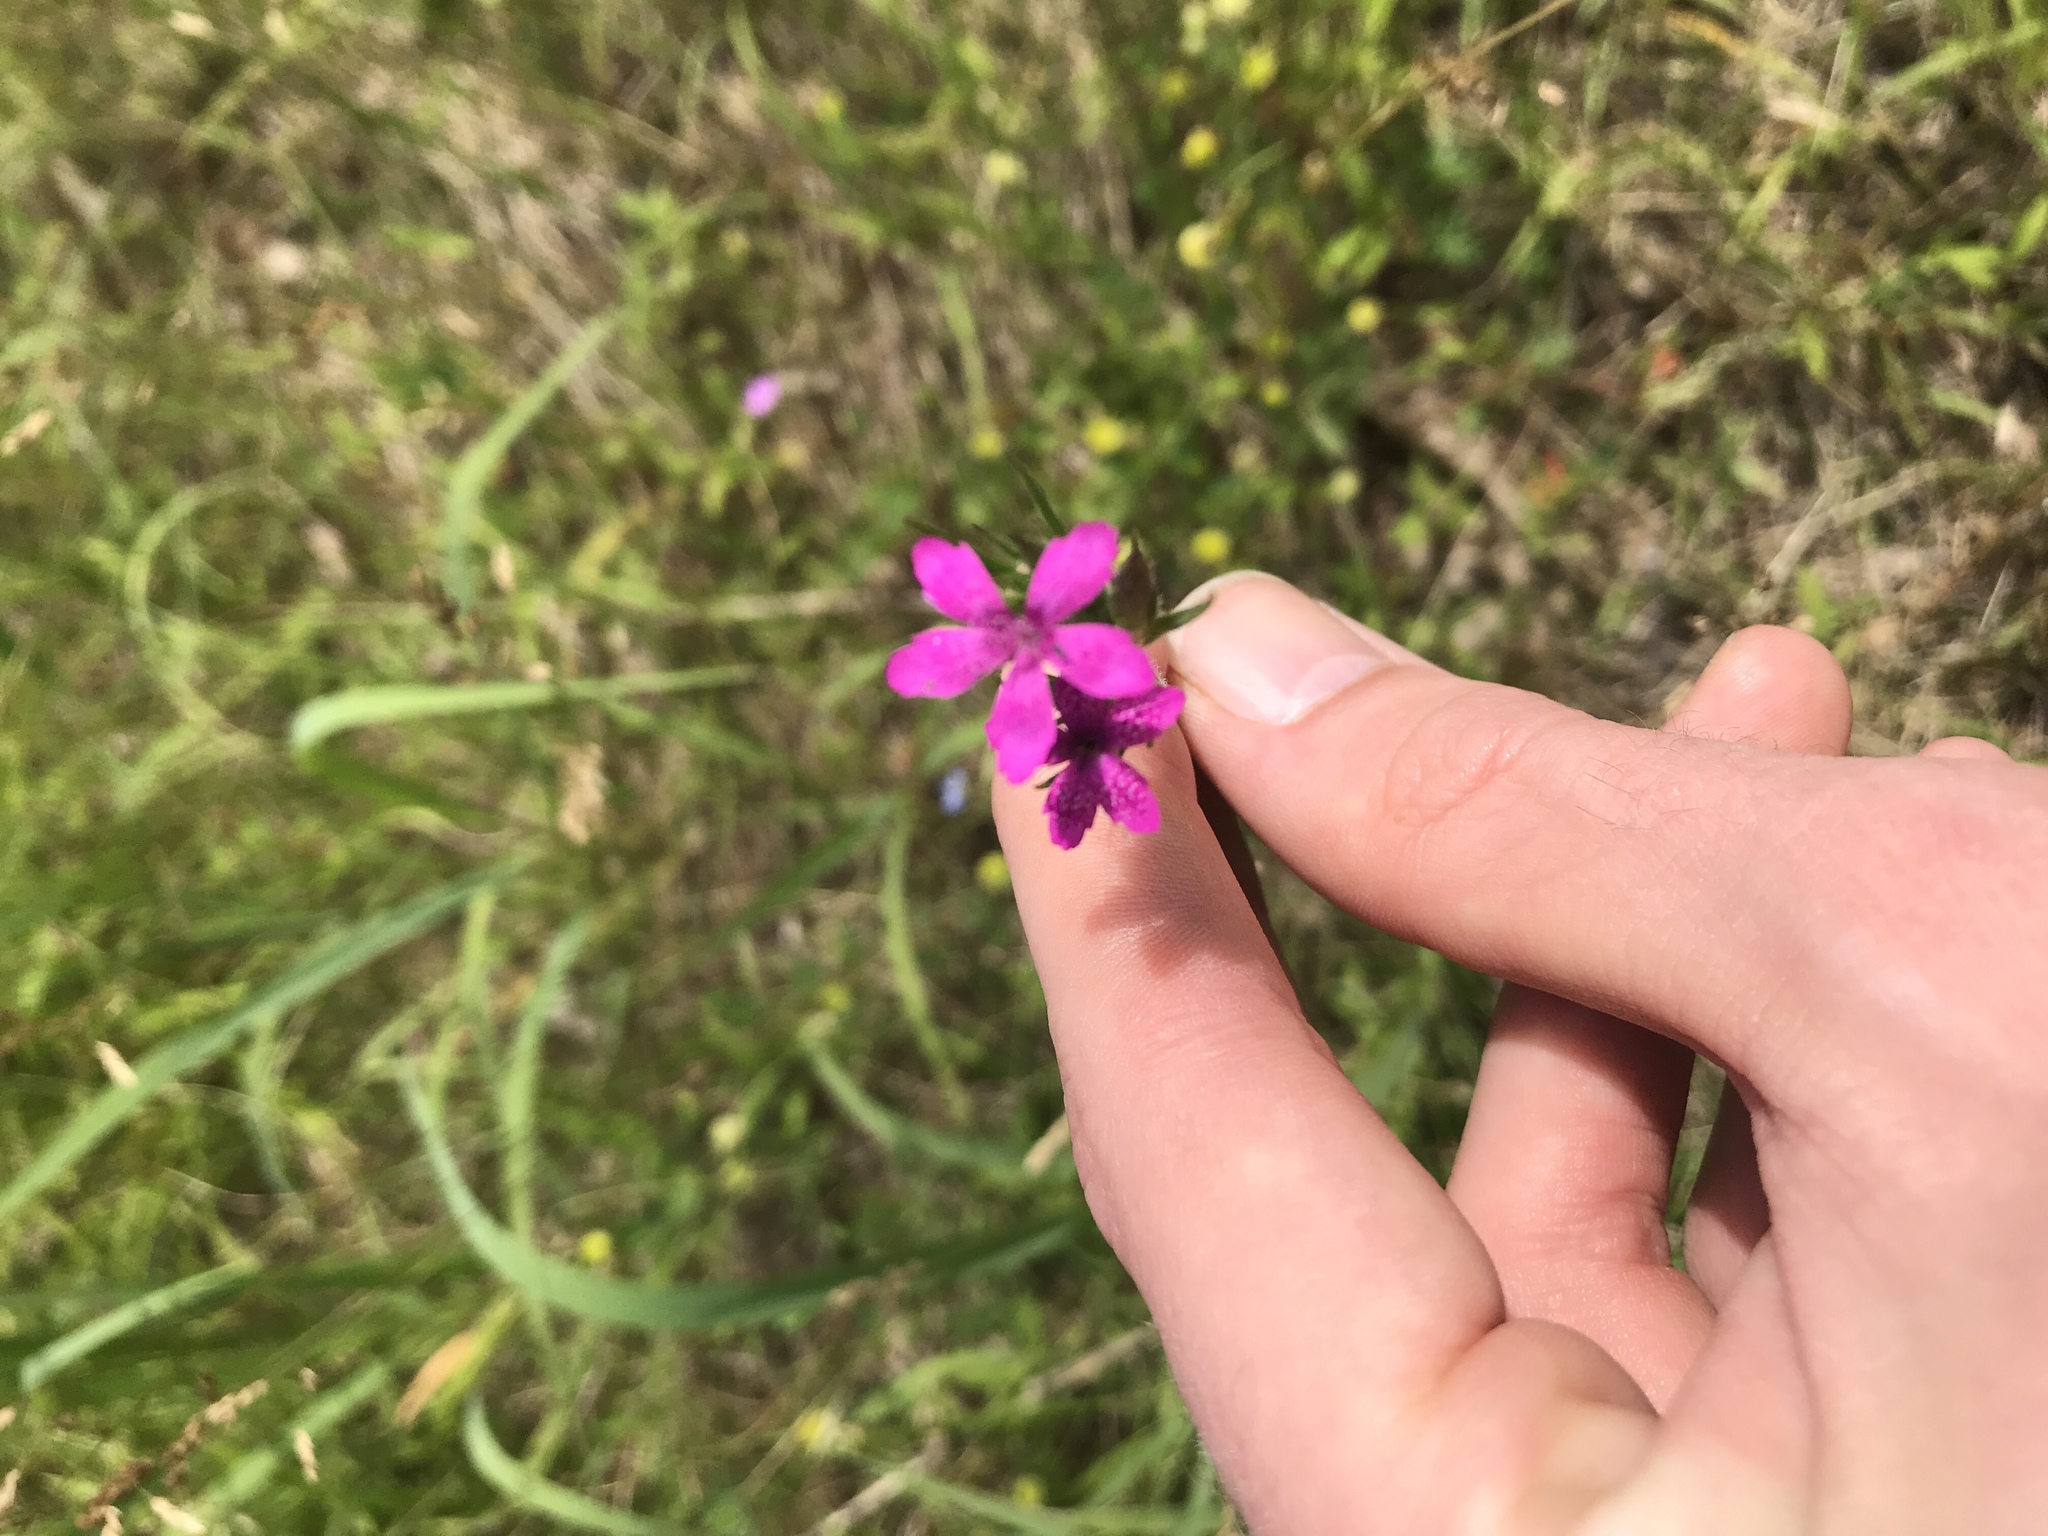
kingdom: Plantae
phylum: Tracheophyta
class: Magnoliopsida
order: Caryophyllales
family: Caryophyllaceae
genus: Dianthus
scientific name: Dianthus armeria
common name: Deptford pink
